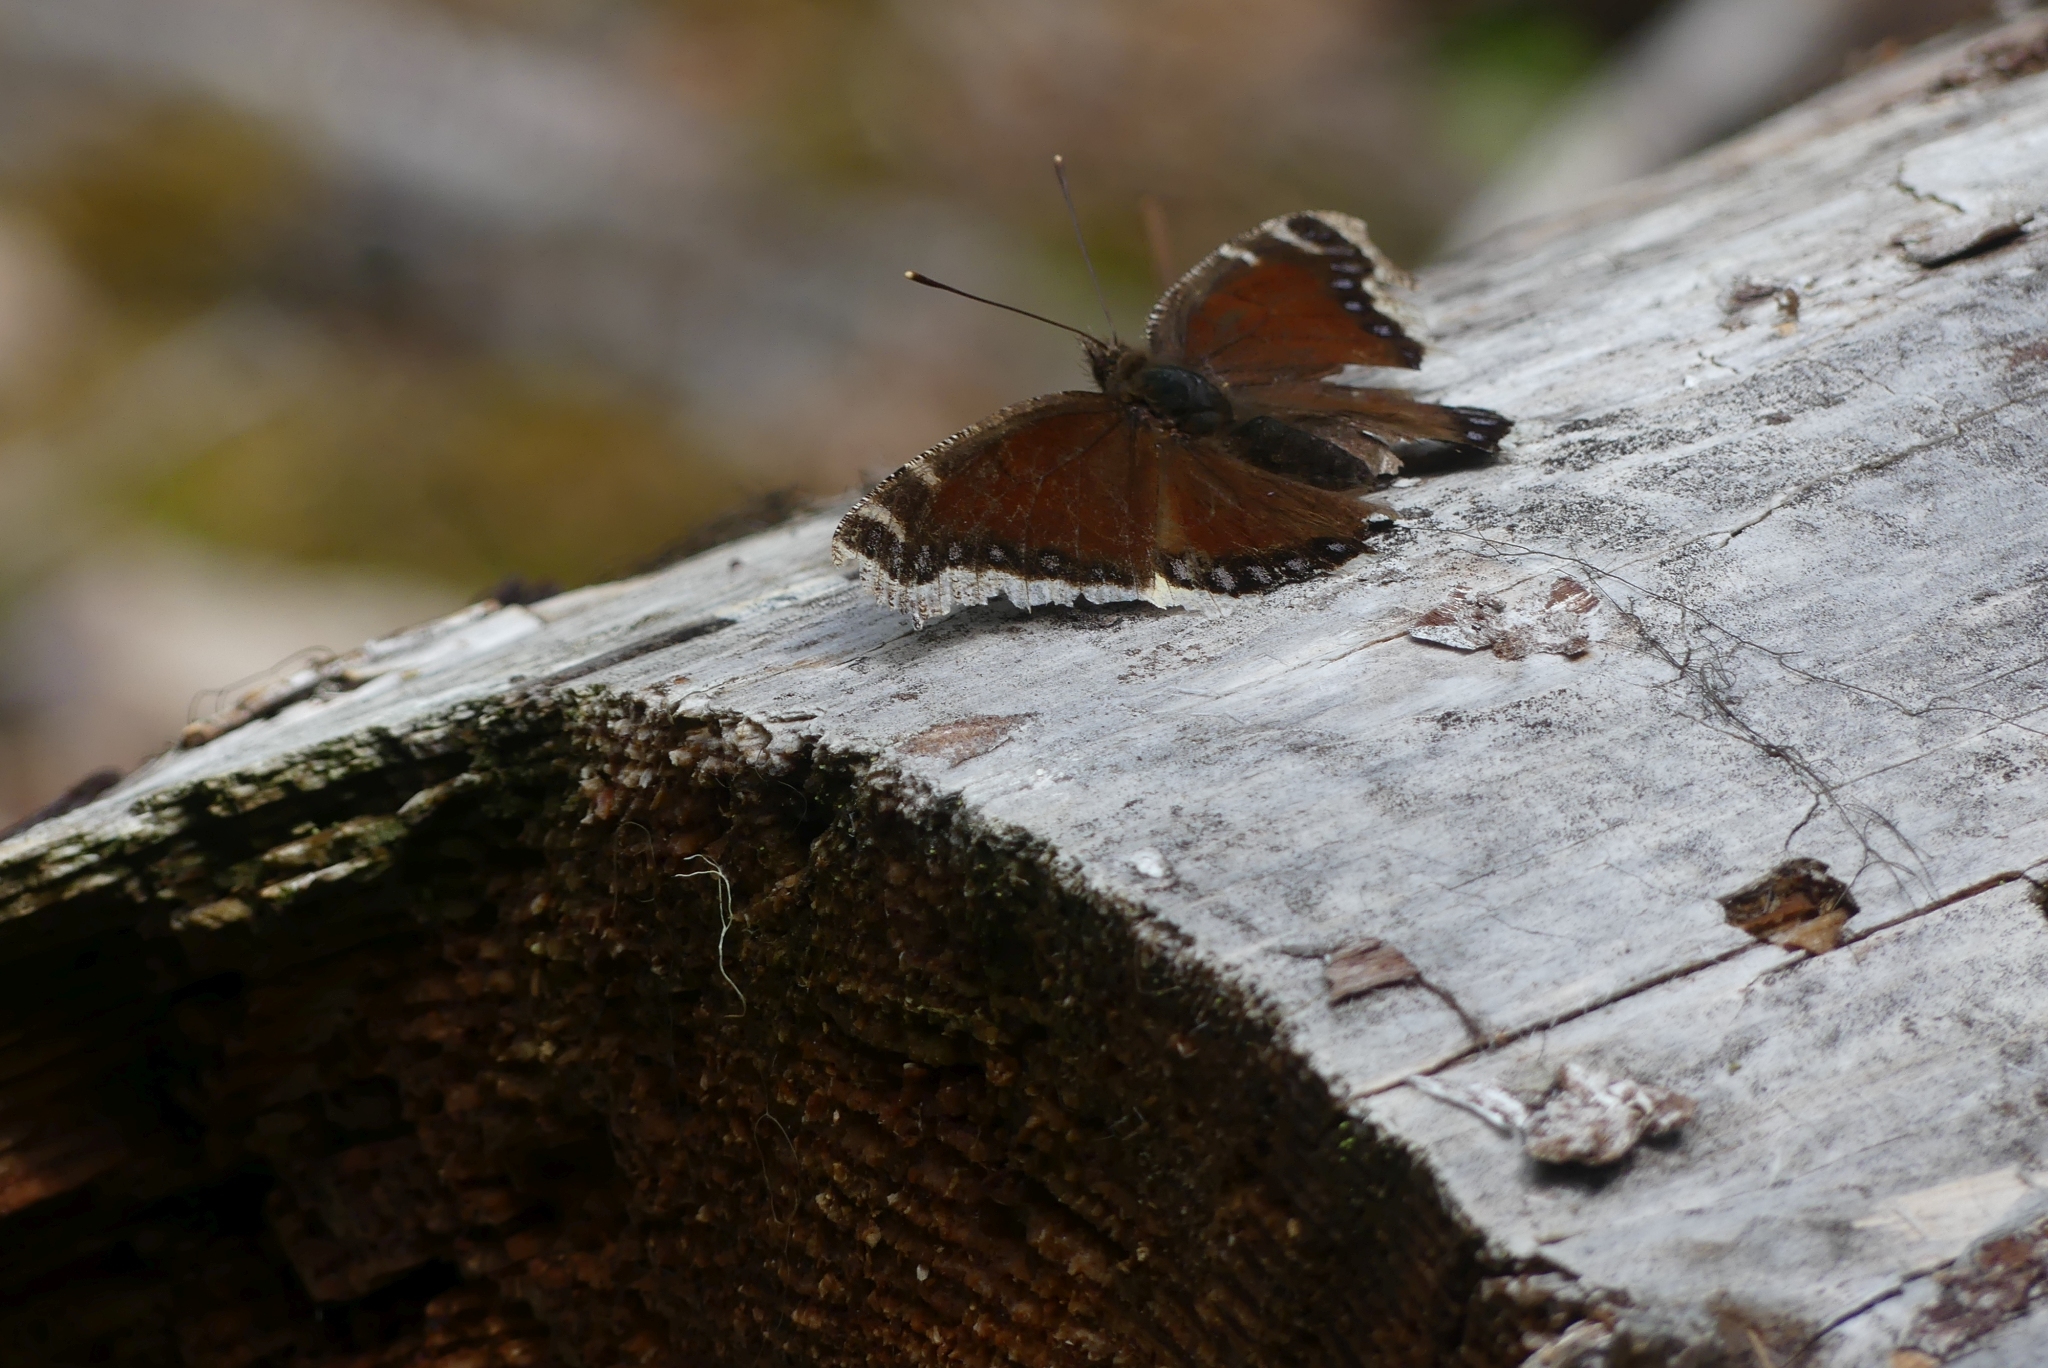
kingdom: Animalia
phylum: Arthropoda
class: Insecta
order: Lepidoptera
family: Nymphalidae
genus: Nymphalis
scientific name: Nymphalis antiopa
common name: Camberwell beauty
